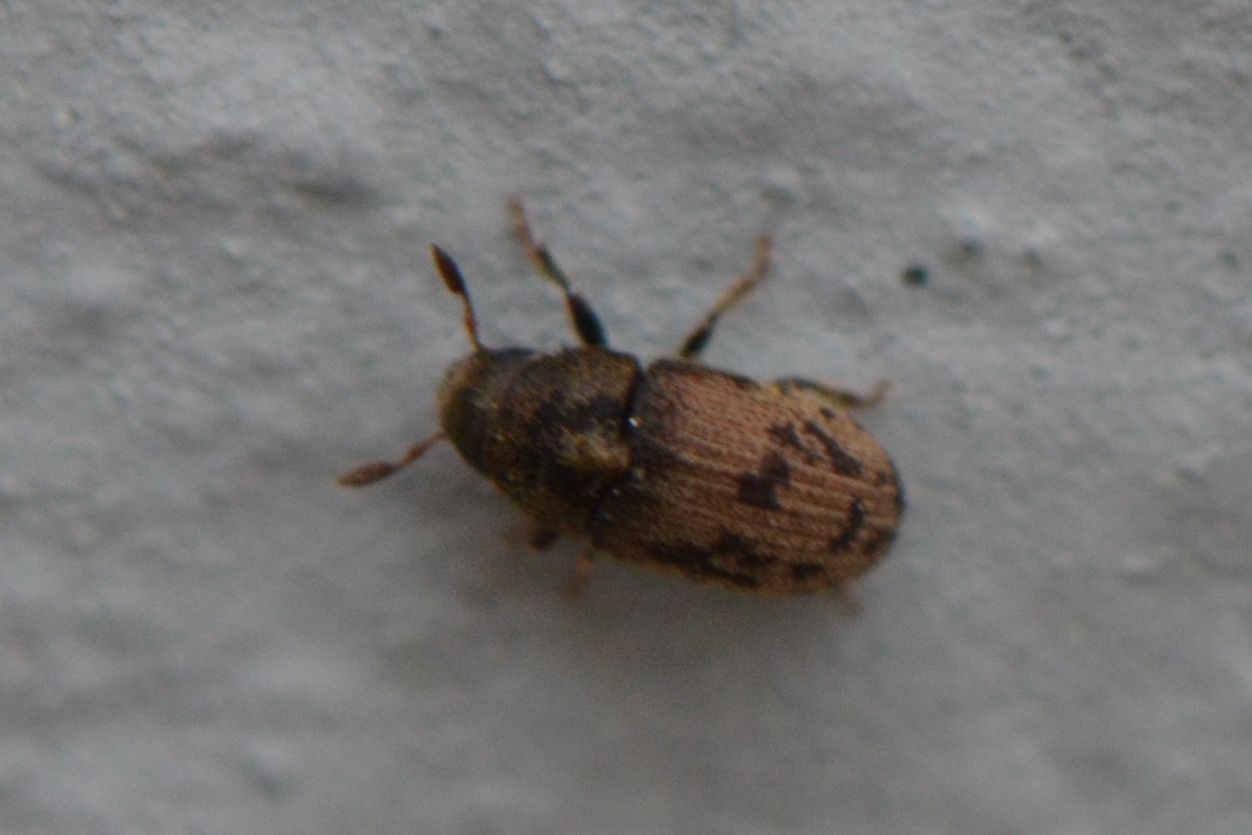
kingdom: Animalia
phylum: Arthropoda
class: Insecta
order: Coleoptera
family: Curculionidae
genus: Hylesinus
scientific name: Hylesinus varius
